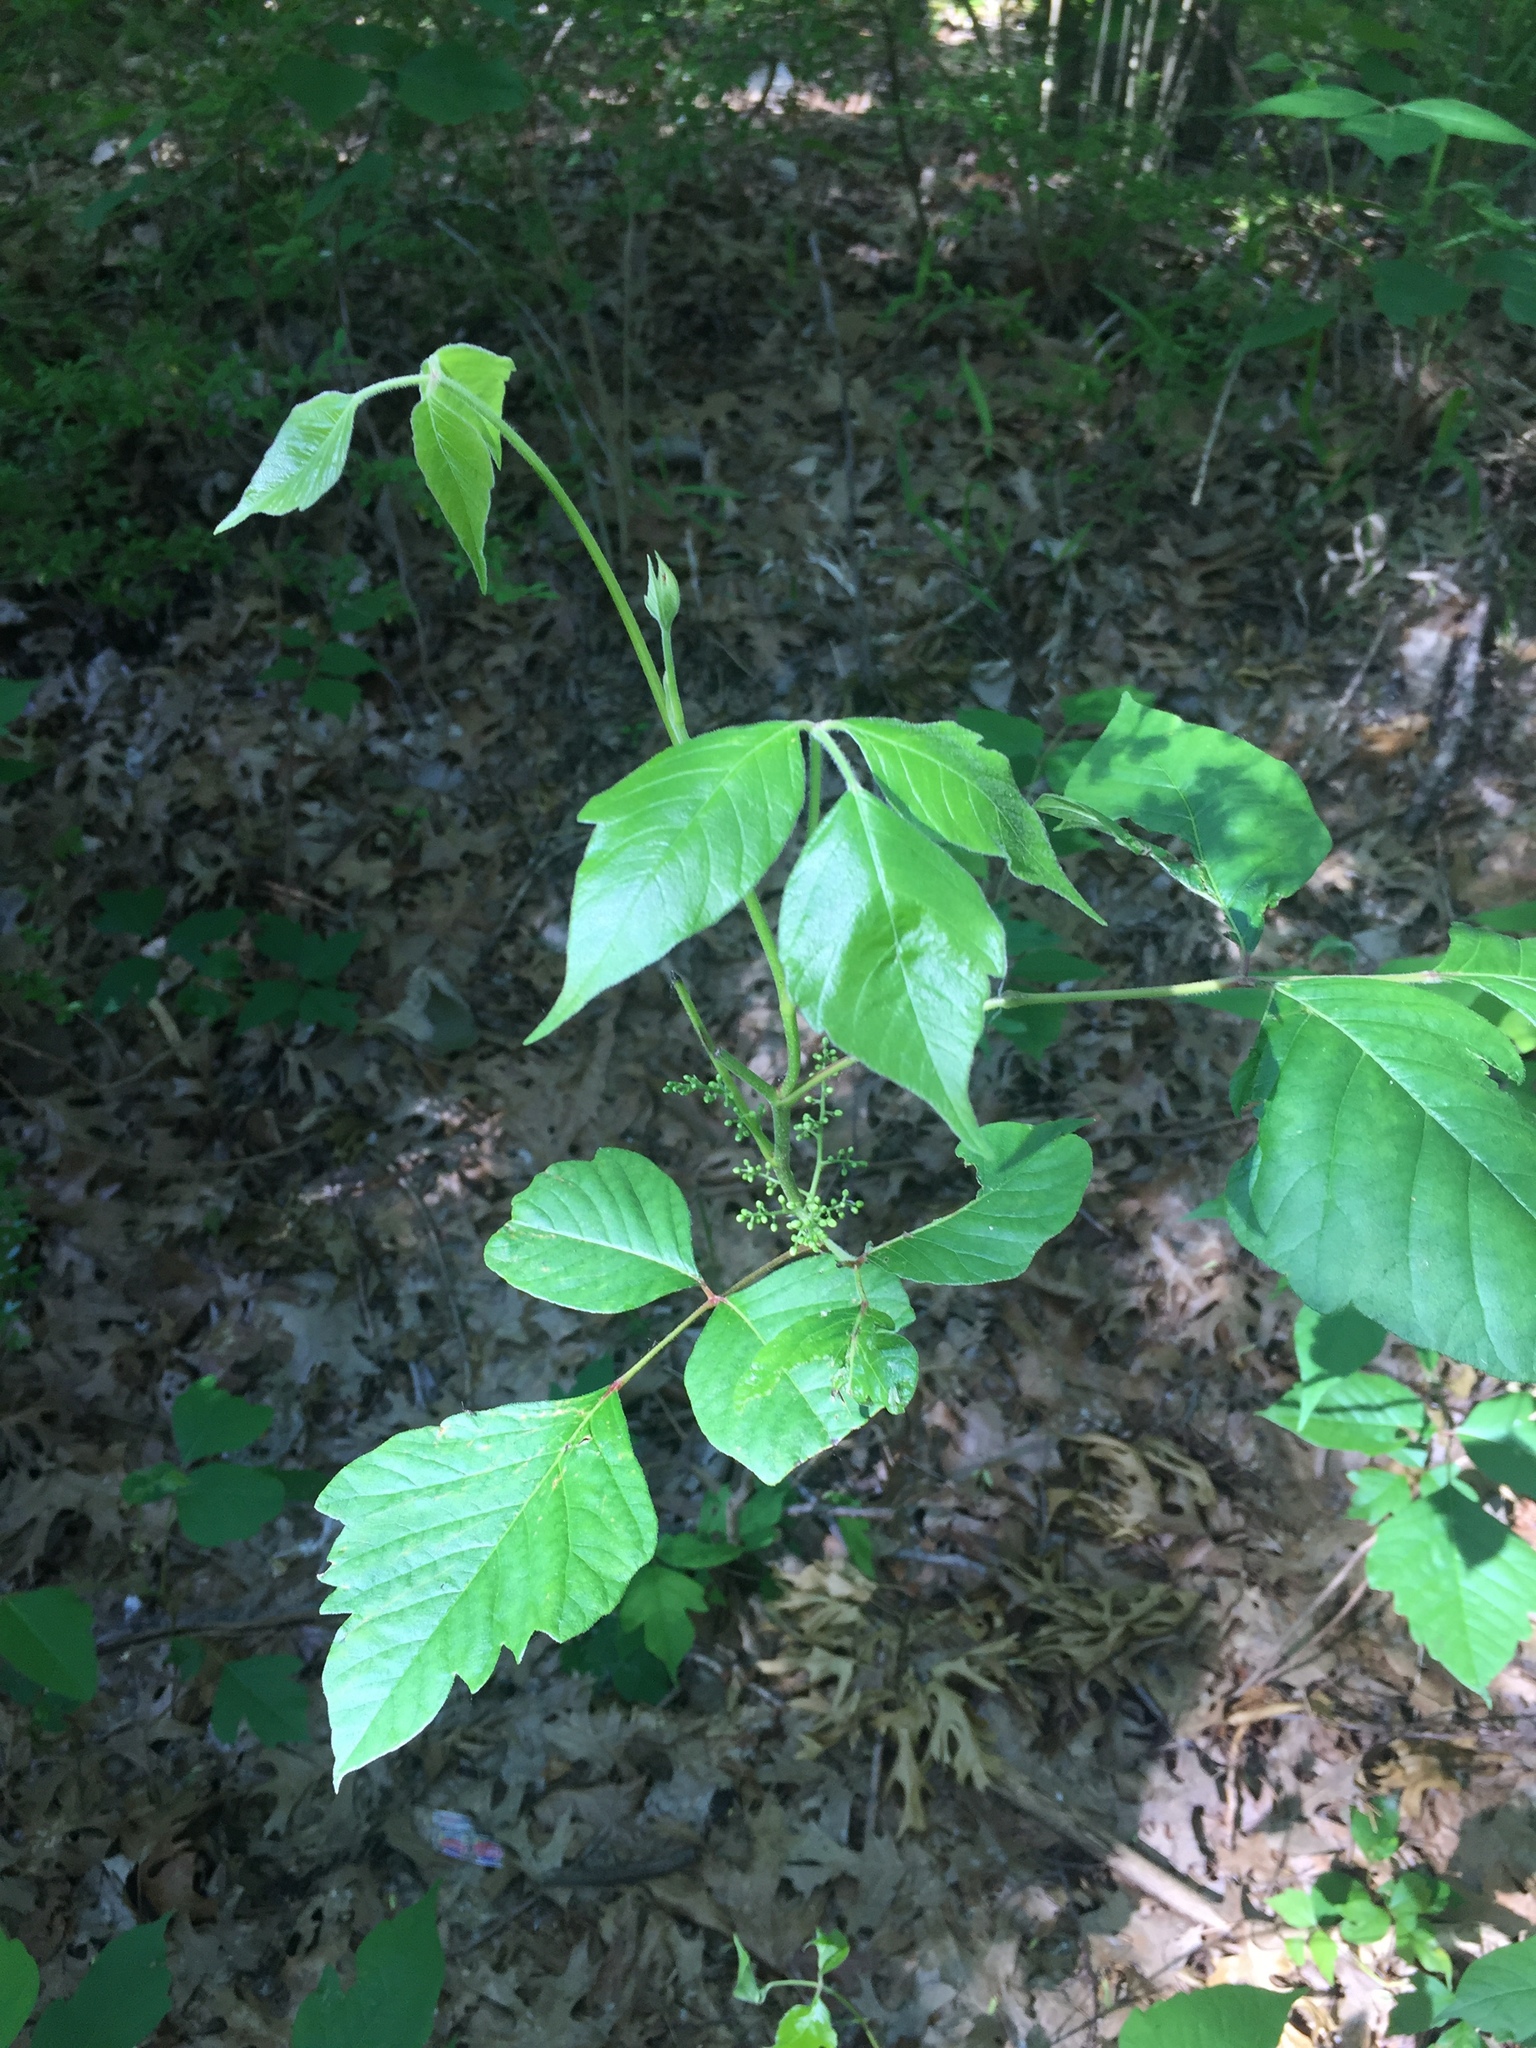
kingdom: Plantae
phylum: Tracheophyta
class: Magnoliopsida
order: Sapindales
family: Anacardiaceae
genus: Toxicodendron
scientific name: Toxicodendron radicans
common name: Poison ivy
